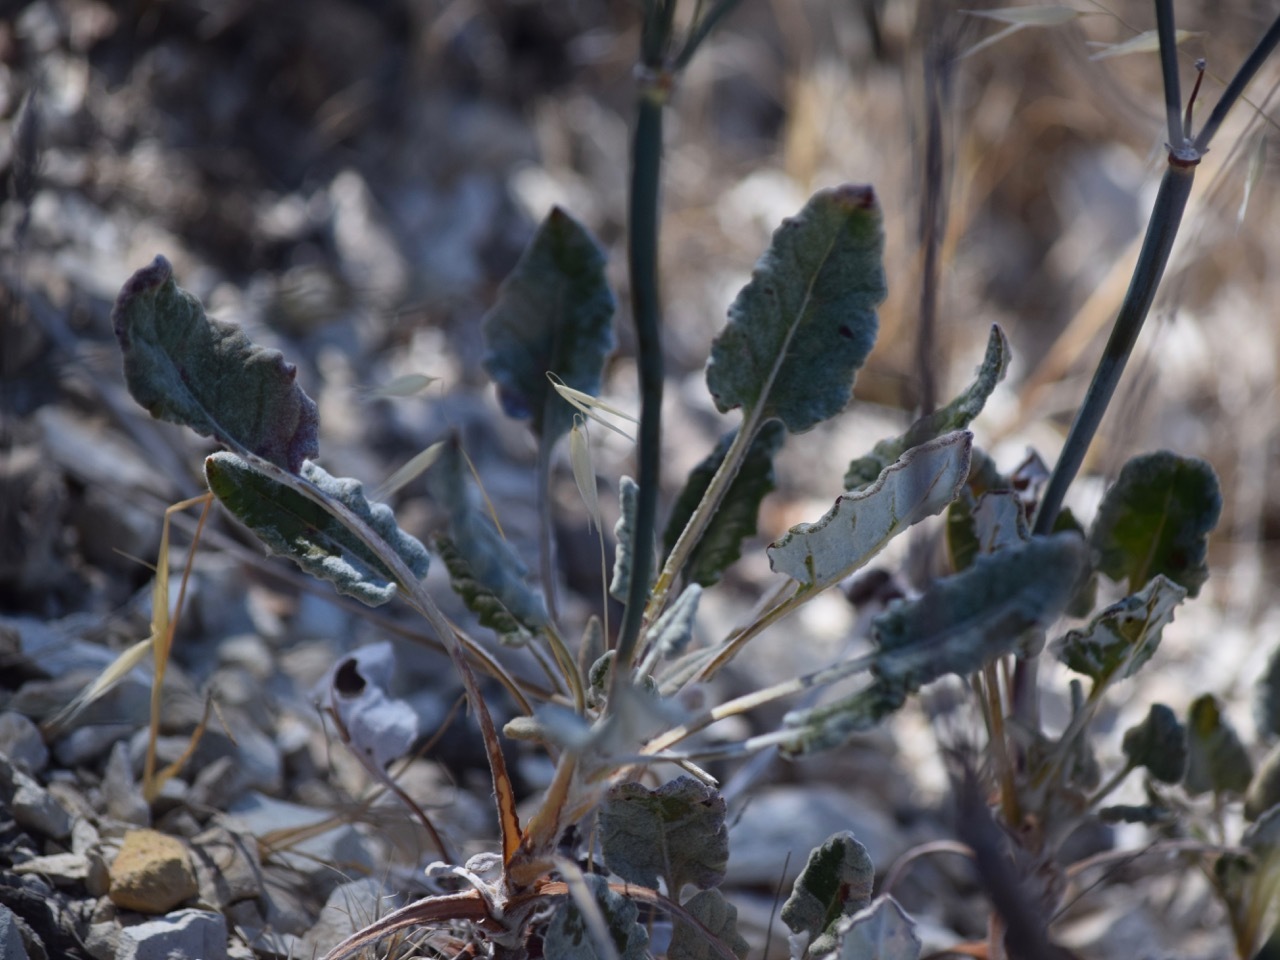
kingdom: Plantae
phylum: Tracheophyta
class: Magnoliopsida
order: Caryophyllales
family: Polygonaceae
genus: Eriogonum
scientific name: Eriogonum nudum
